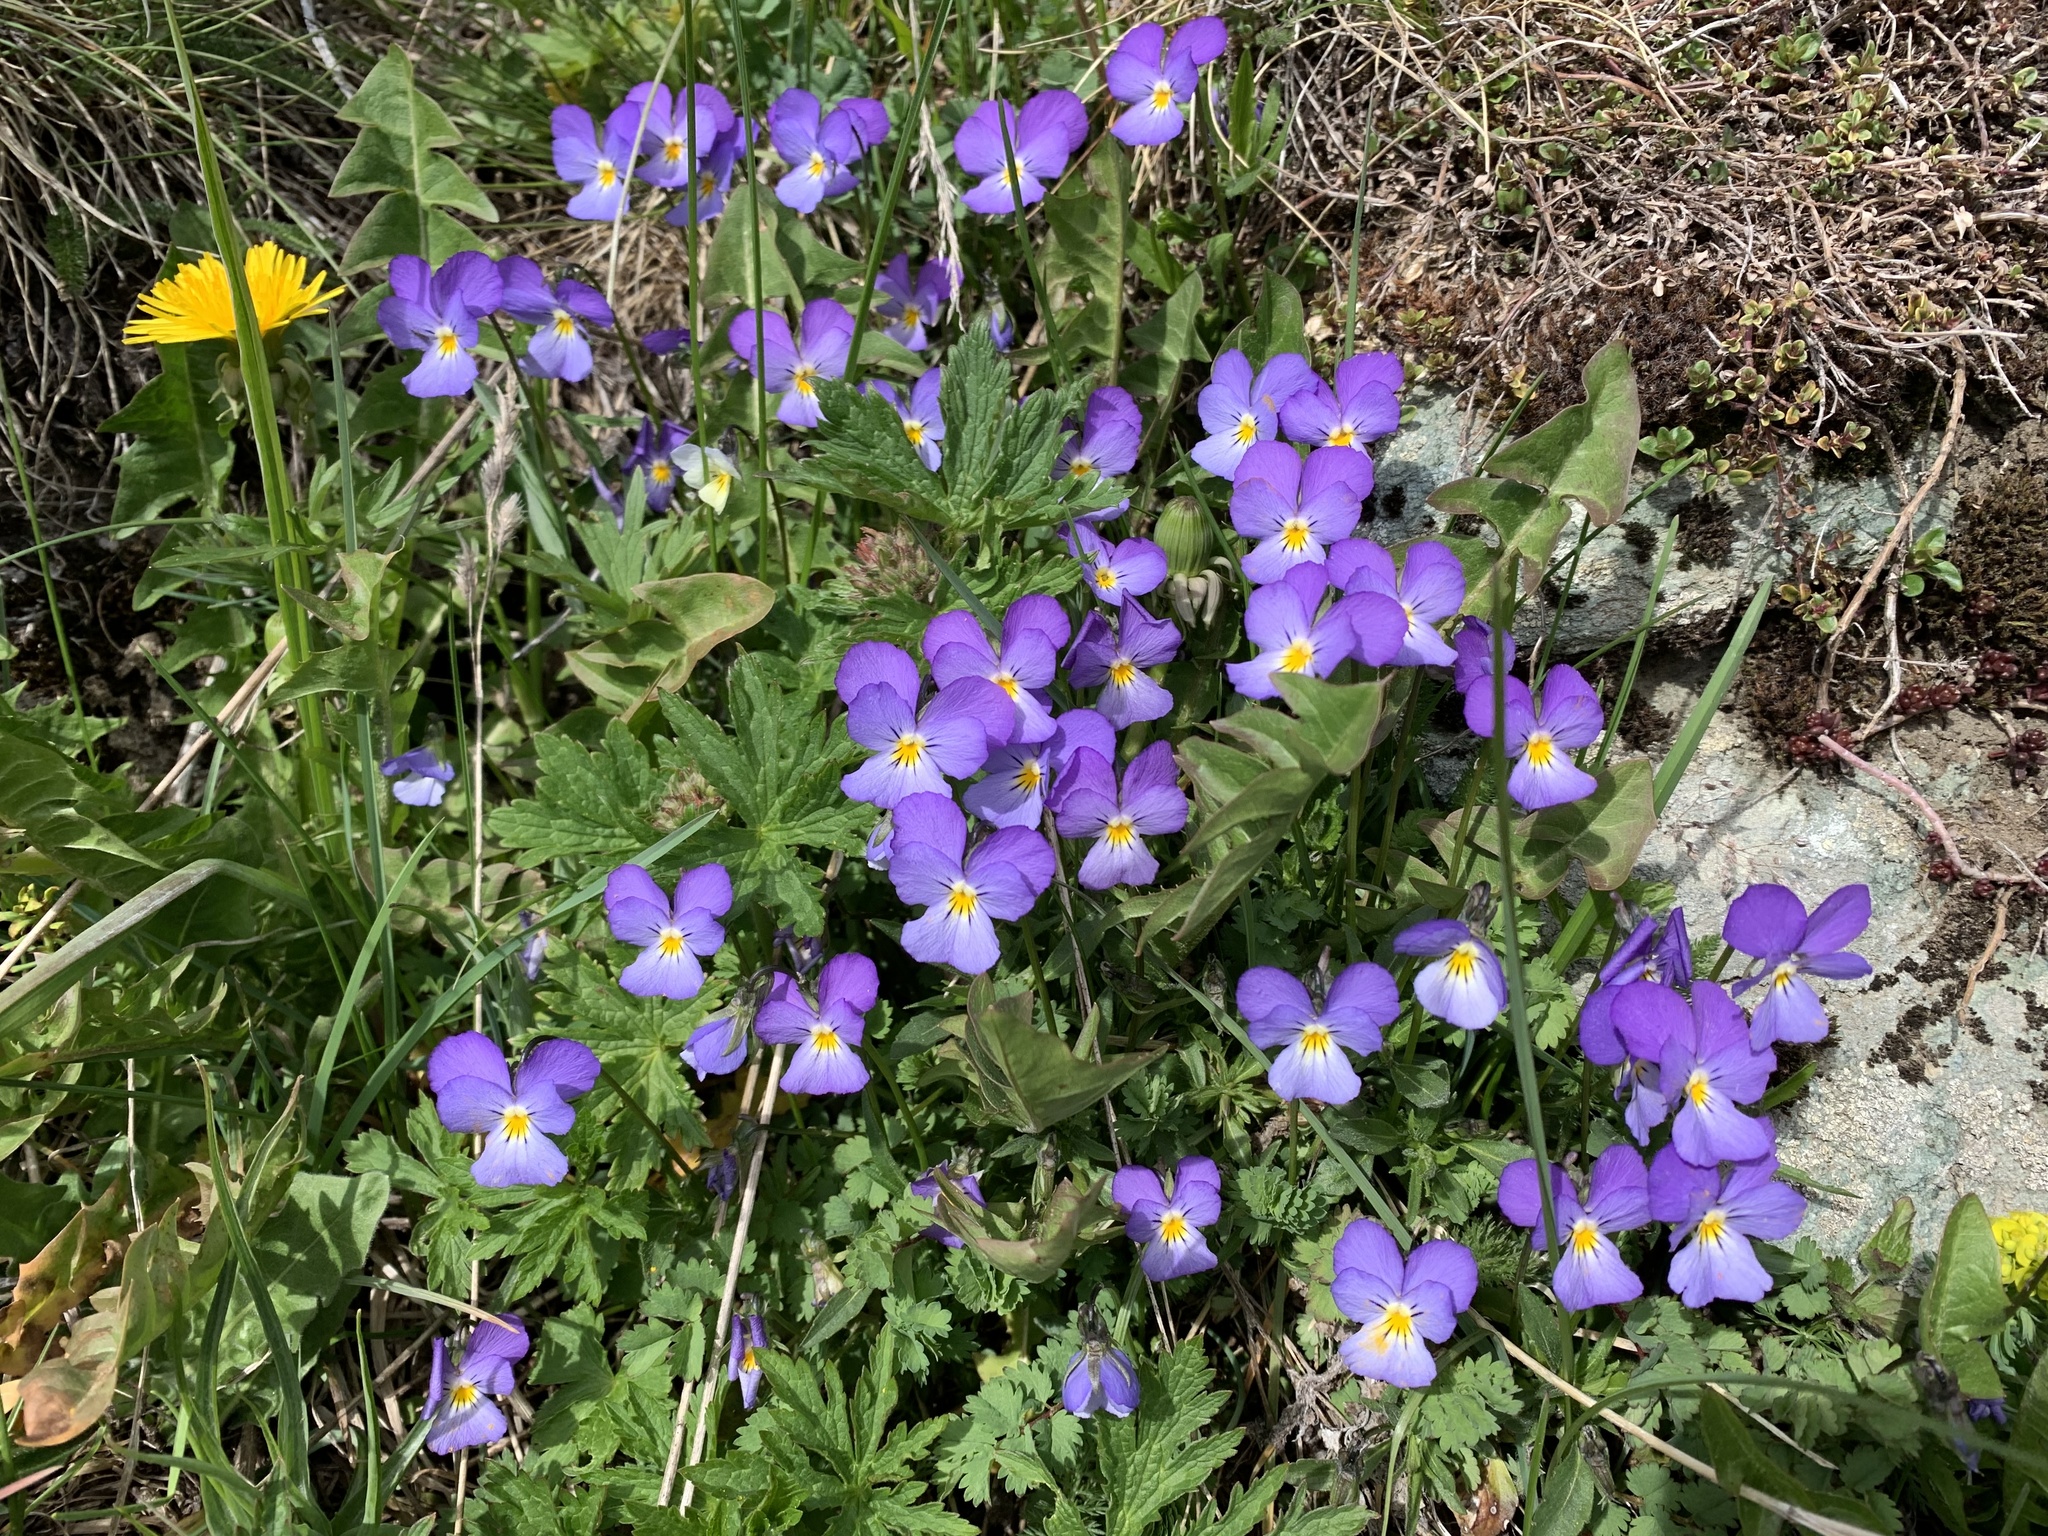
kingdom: Plantae
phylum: Tracheophyta
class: Magnoliopsida
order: Malpighiales
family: Violaceae
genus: Viola
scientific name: Viola calcarata
